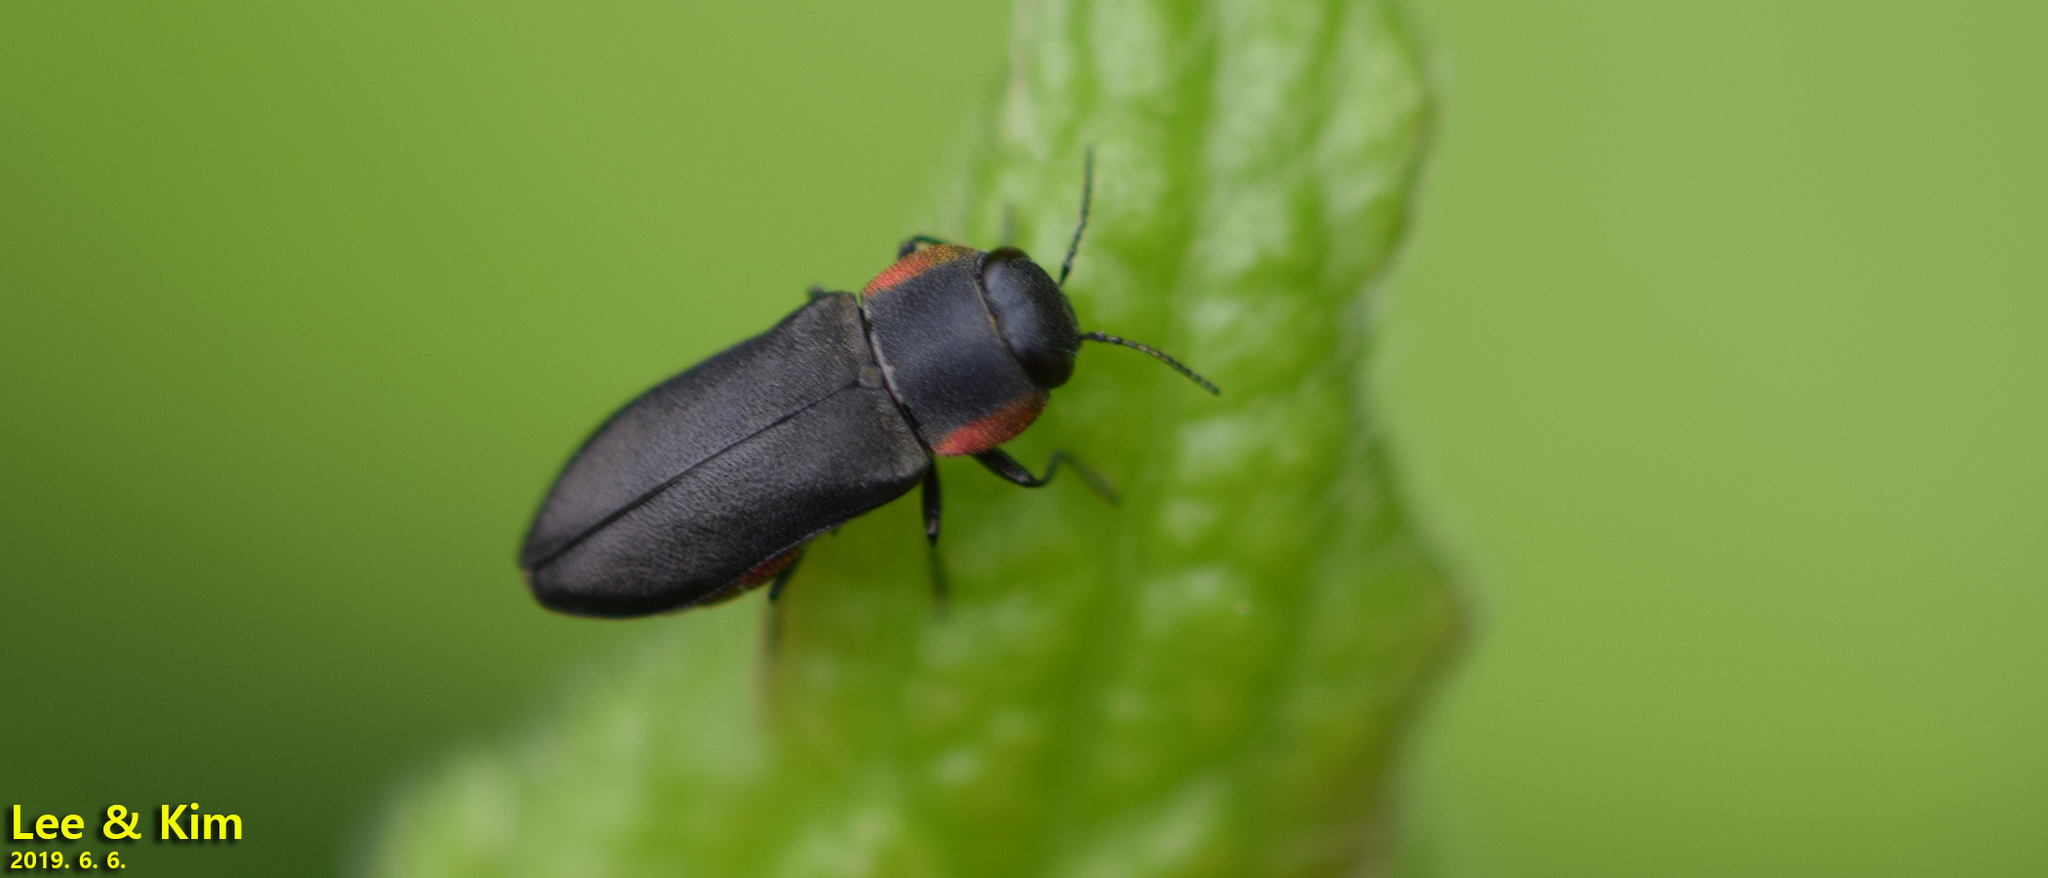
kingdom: Animalia
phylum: Arthropoda
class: Insecta
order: Coleoptera
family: Buprestidae
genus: Anthaxia
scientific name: Anthaxia rubromarginata
